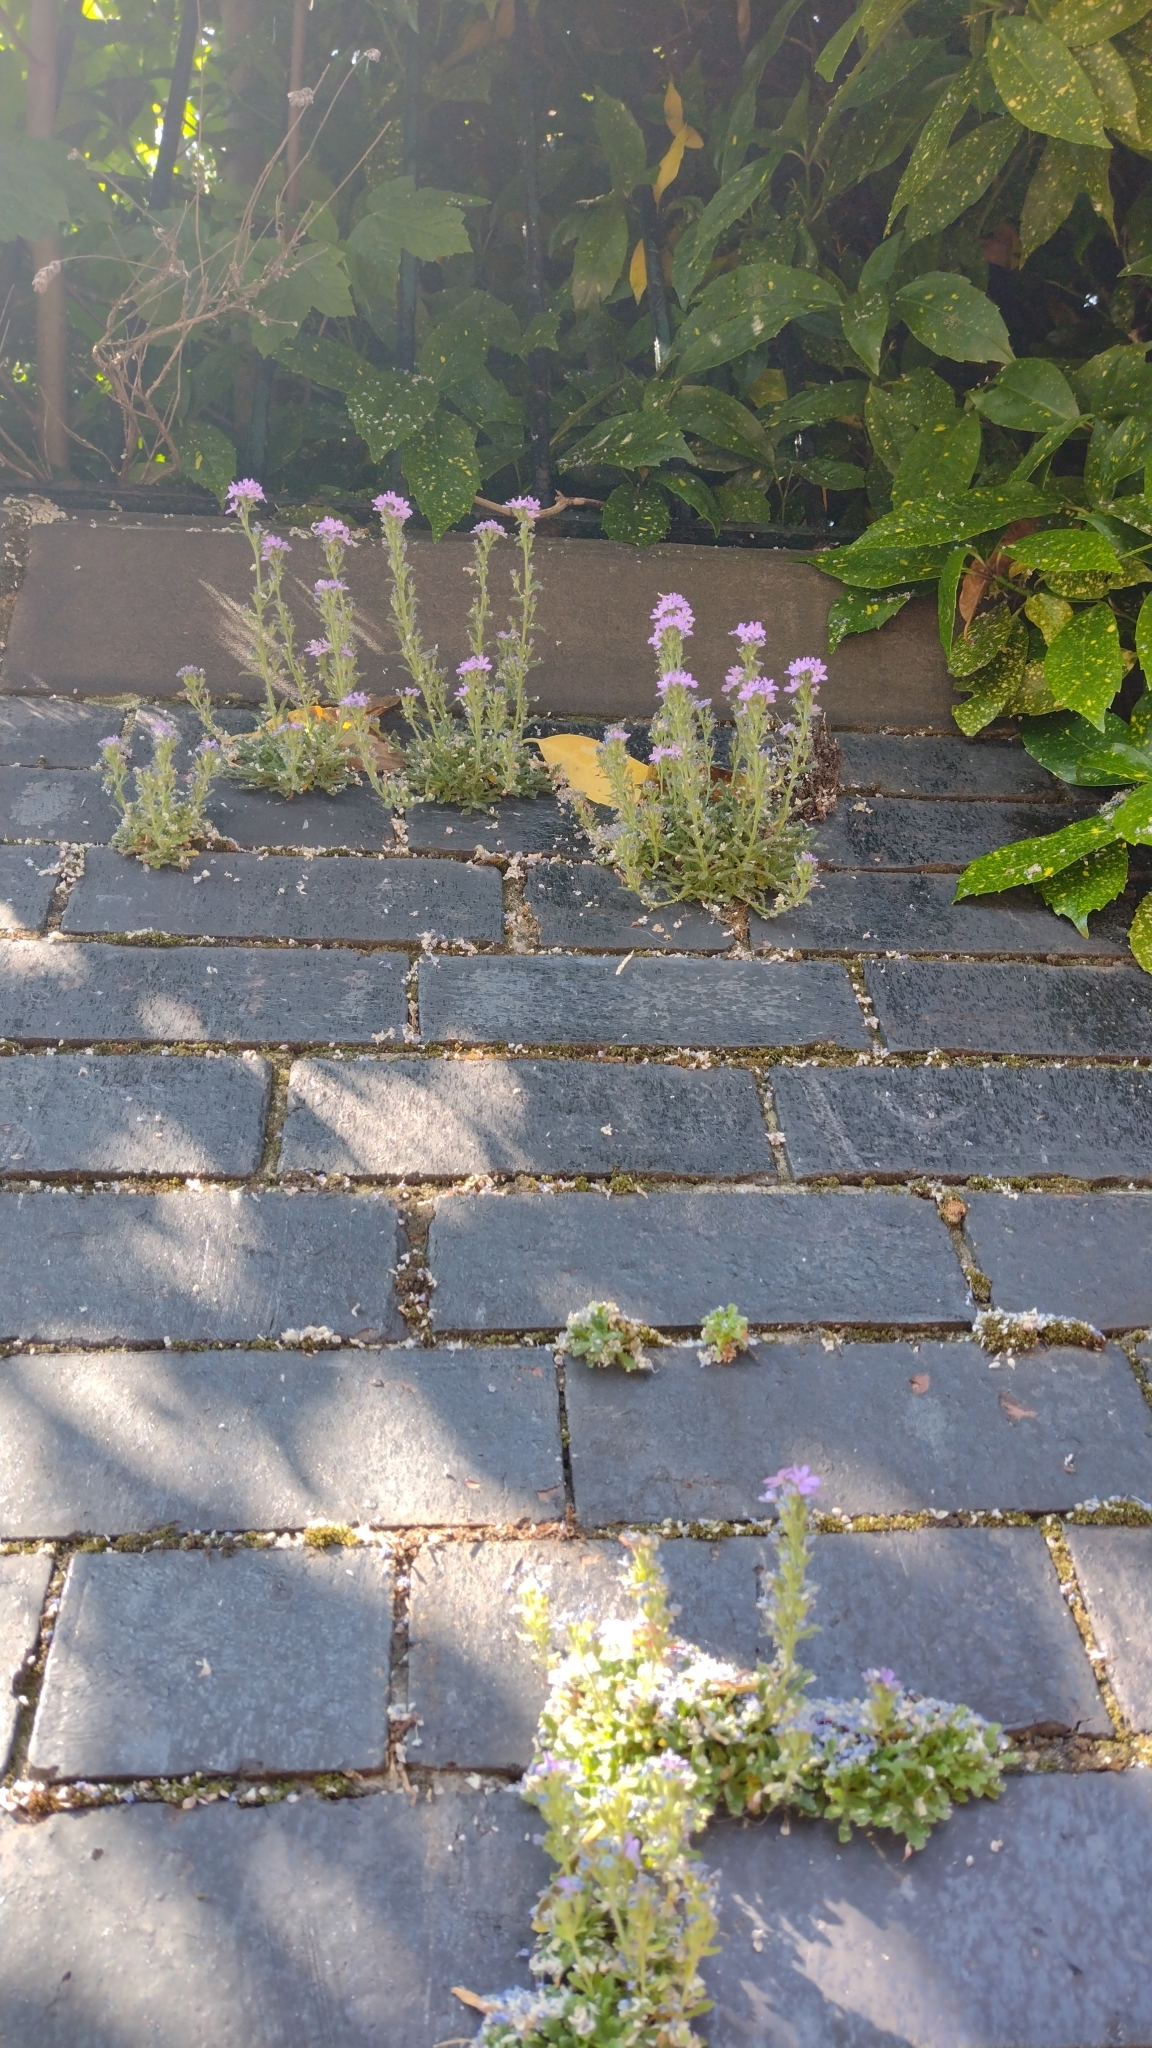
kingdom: Plantae
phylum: Tracheophyta
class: Magnoliopsida
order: Lamiales
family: Plantaginaceae
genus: Erinus
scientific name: Erinus alpinus
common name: Fairy foxglove
